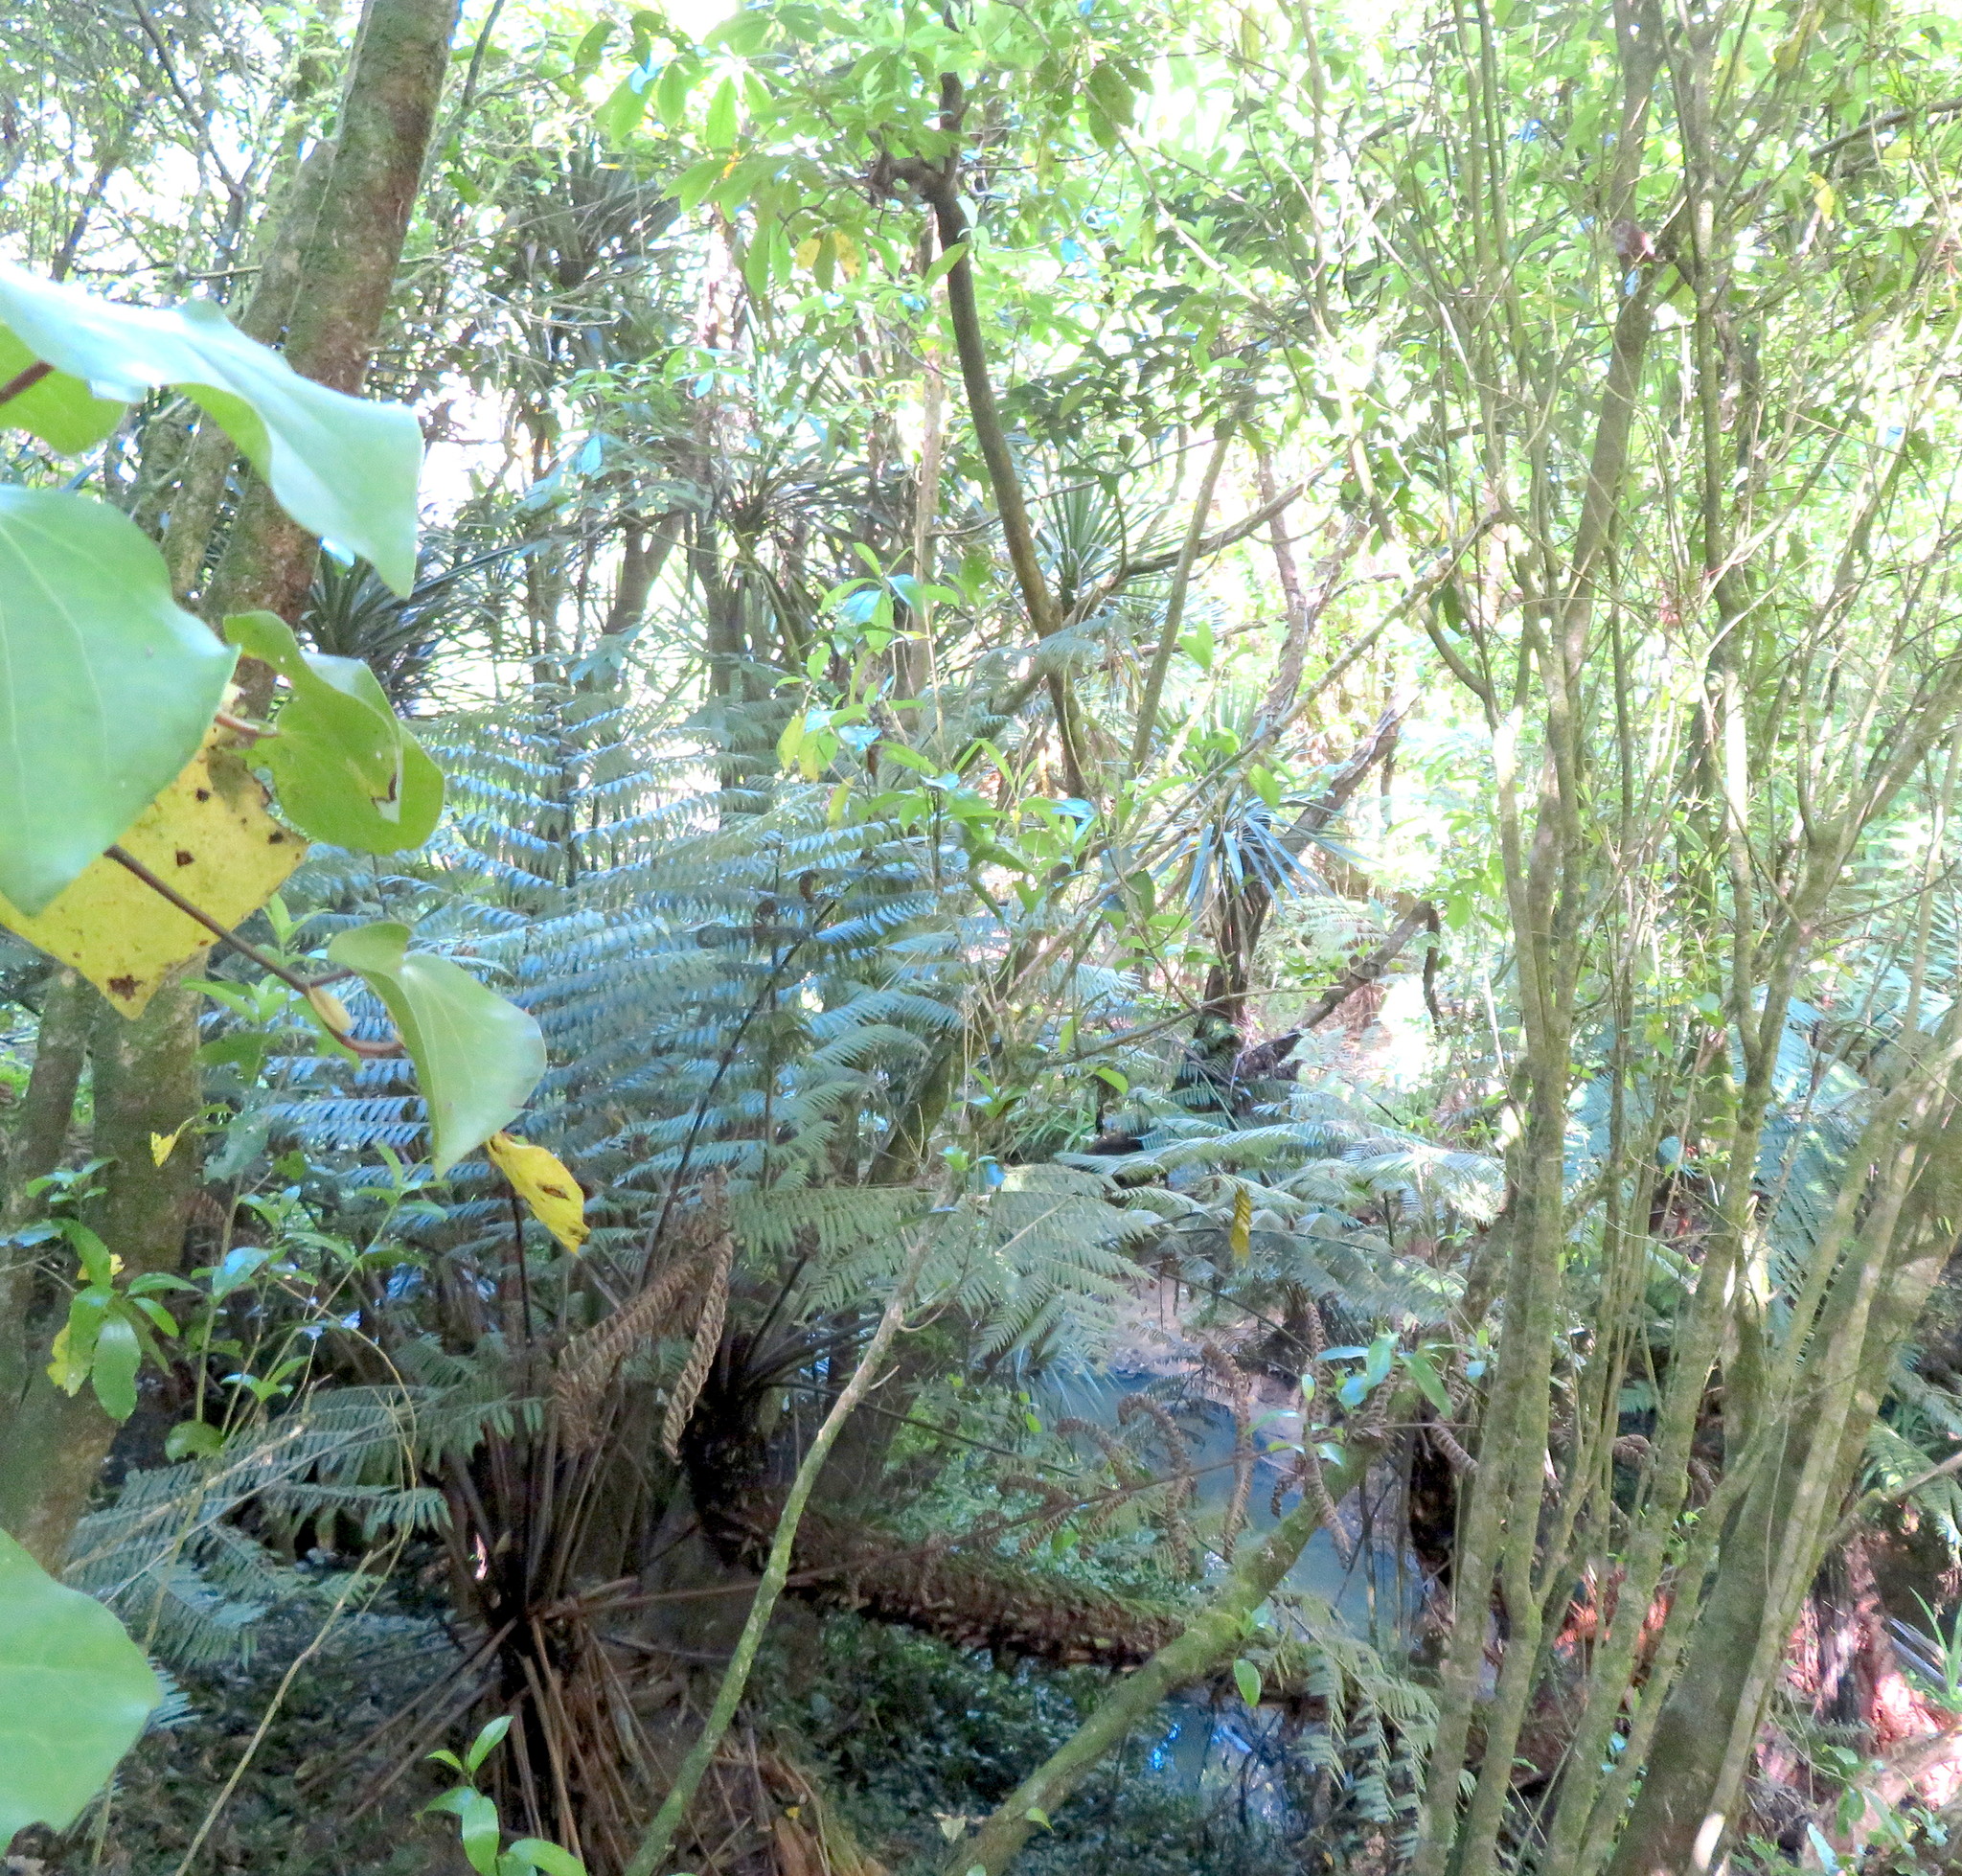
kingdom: Plantae
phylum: Tracheophyta
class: Magnoliopsida
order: Malpighiales
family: Violaceae
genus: Melicytus
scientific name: Melicytus ramiflorus
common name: Mahoe
